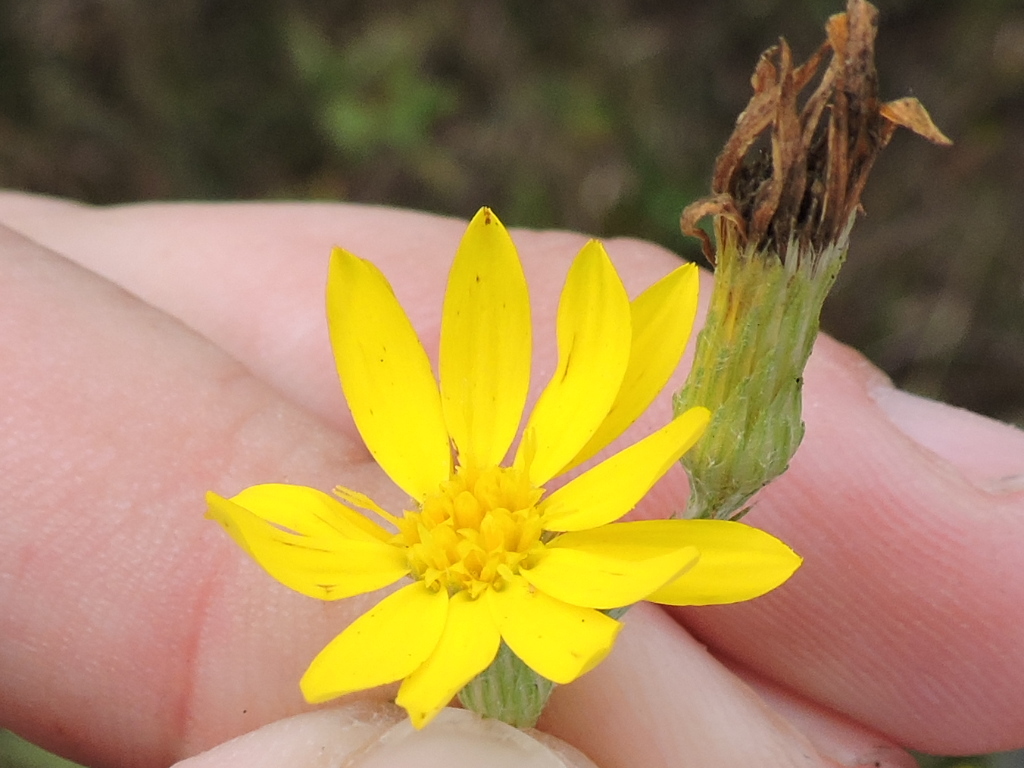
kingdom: Plantae
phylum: Tracheophyta
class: Magnoliopsida
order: Asterales
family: Asteraceae
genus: Pityopsis
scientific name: Pityopsis graminifolia
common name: Grass-leaf golden-aster
